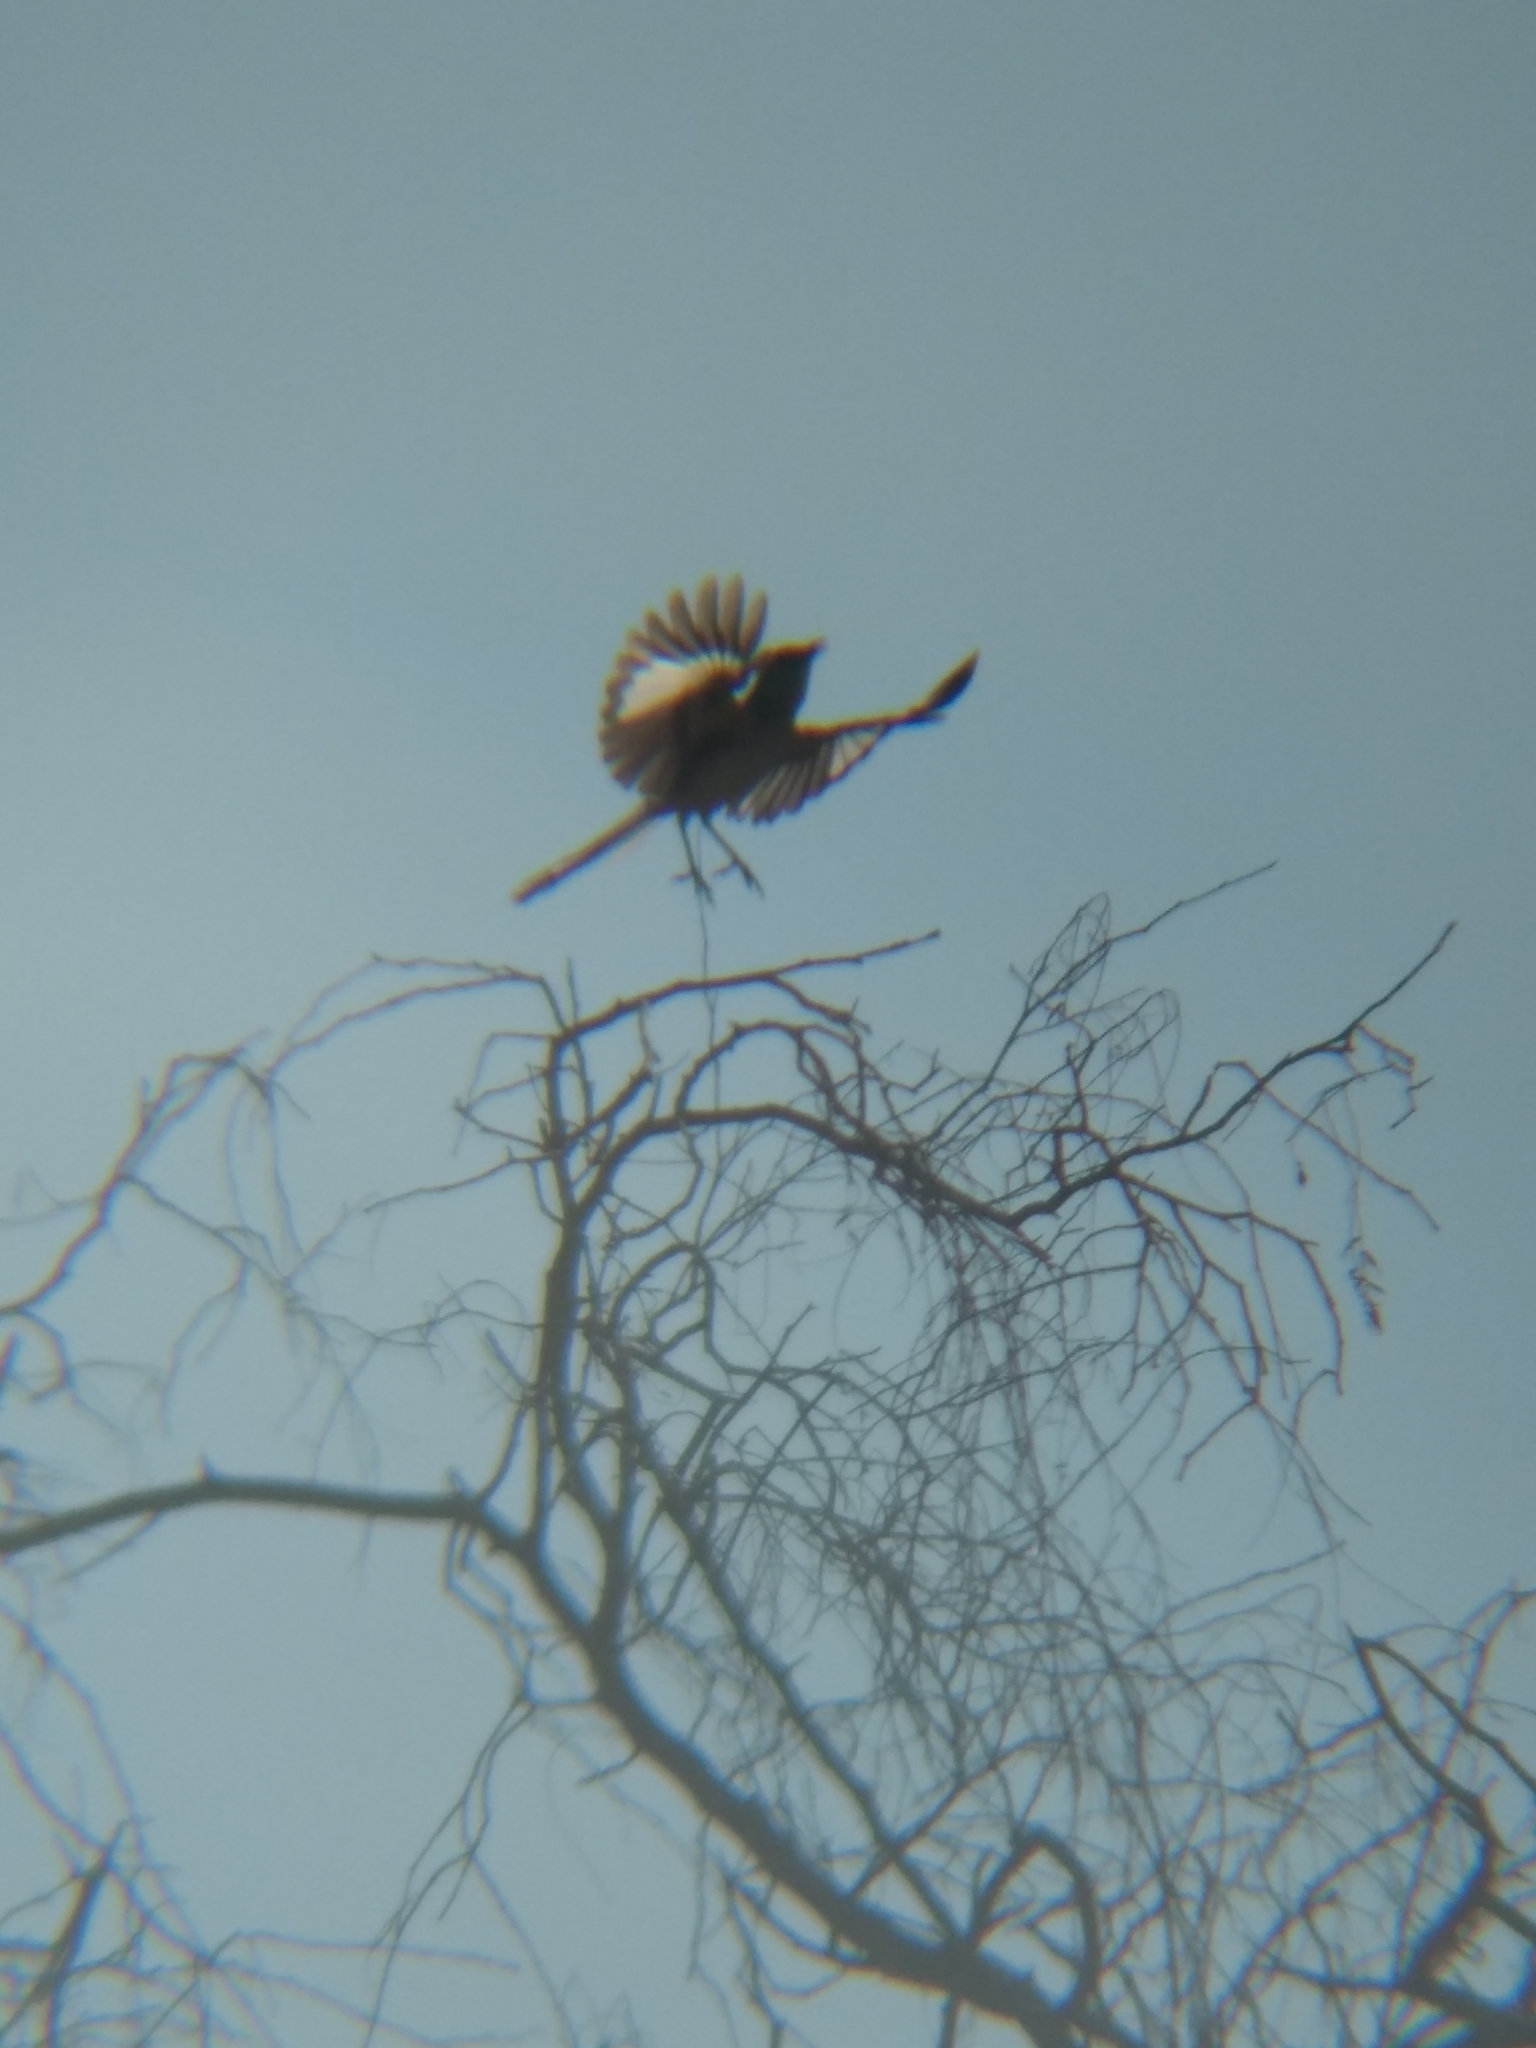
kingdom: Animalia
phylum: Chordata
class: Aves
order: Passeriformes
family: Mimidae
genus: Mimus
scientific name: Mimus polyglottos
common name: Northern mockingbird
